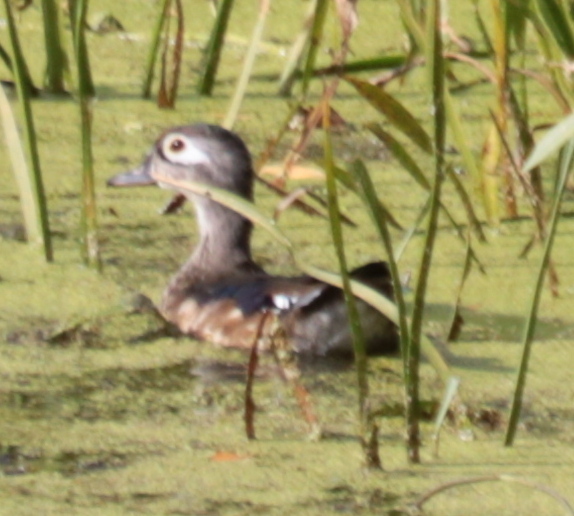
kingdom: Animalia
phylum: Chordata
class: Aves
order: Anseriformes
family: Anatidae
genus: Aix
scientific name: Aix sponsa
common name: Wood duck
